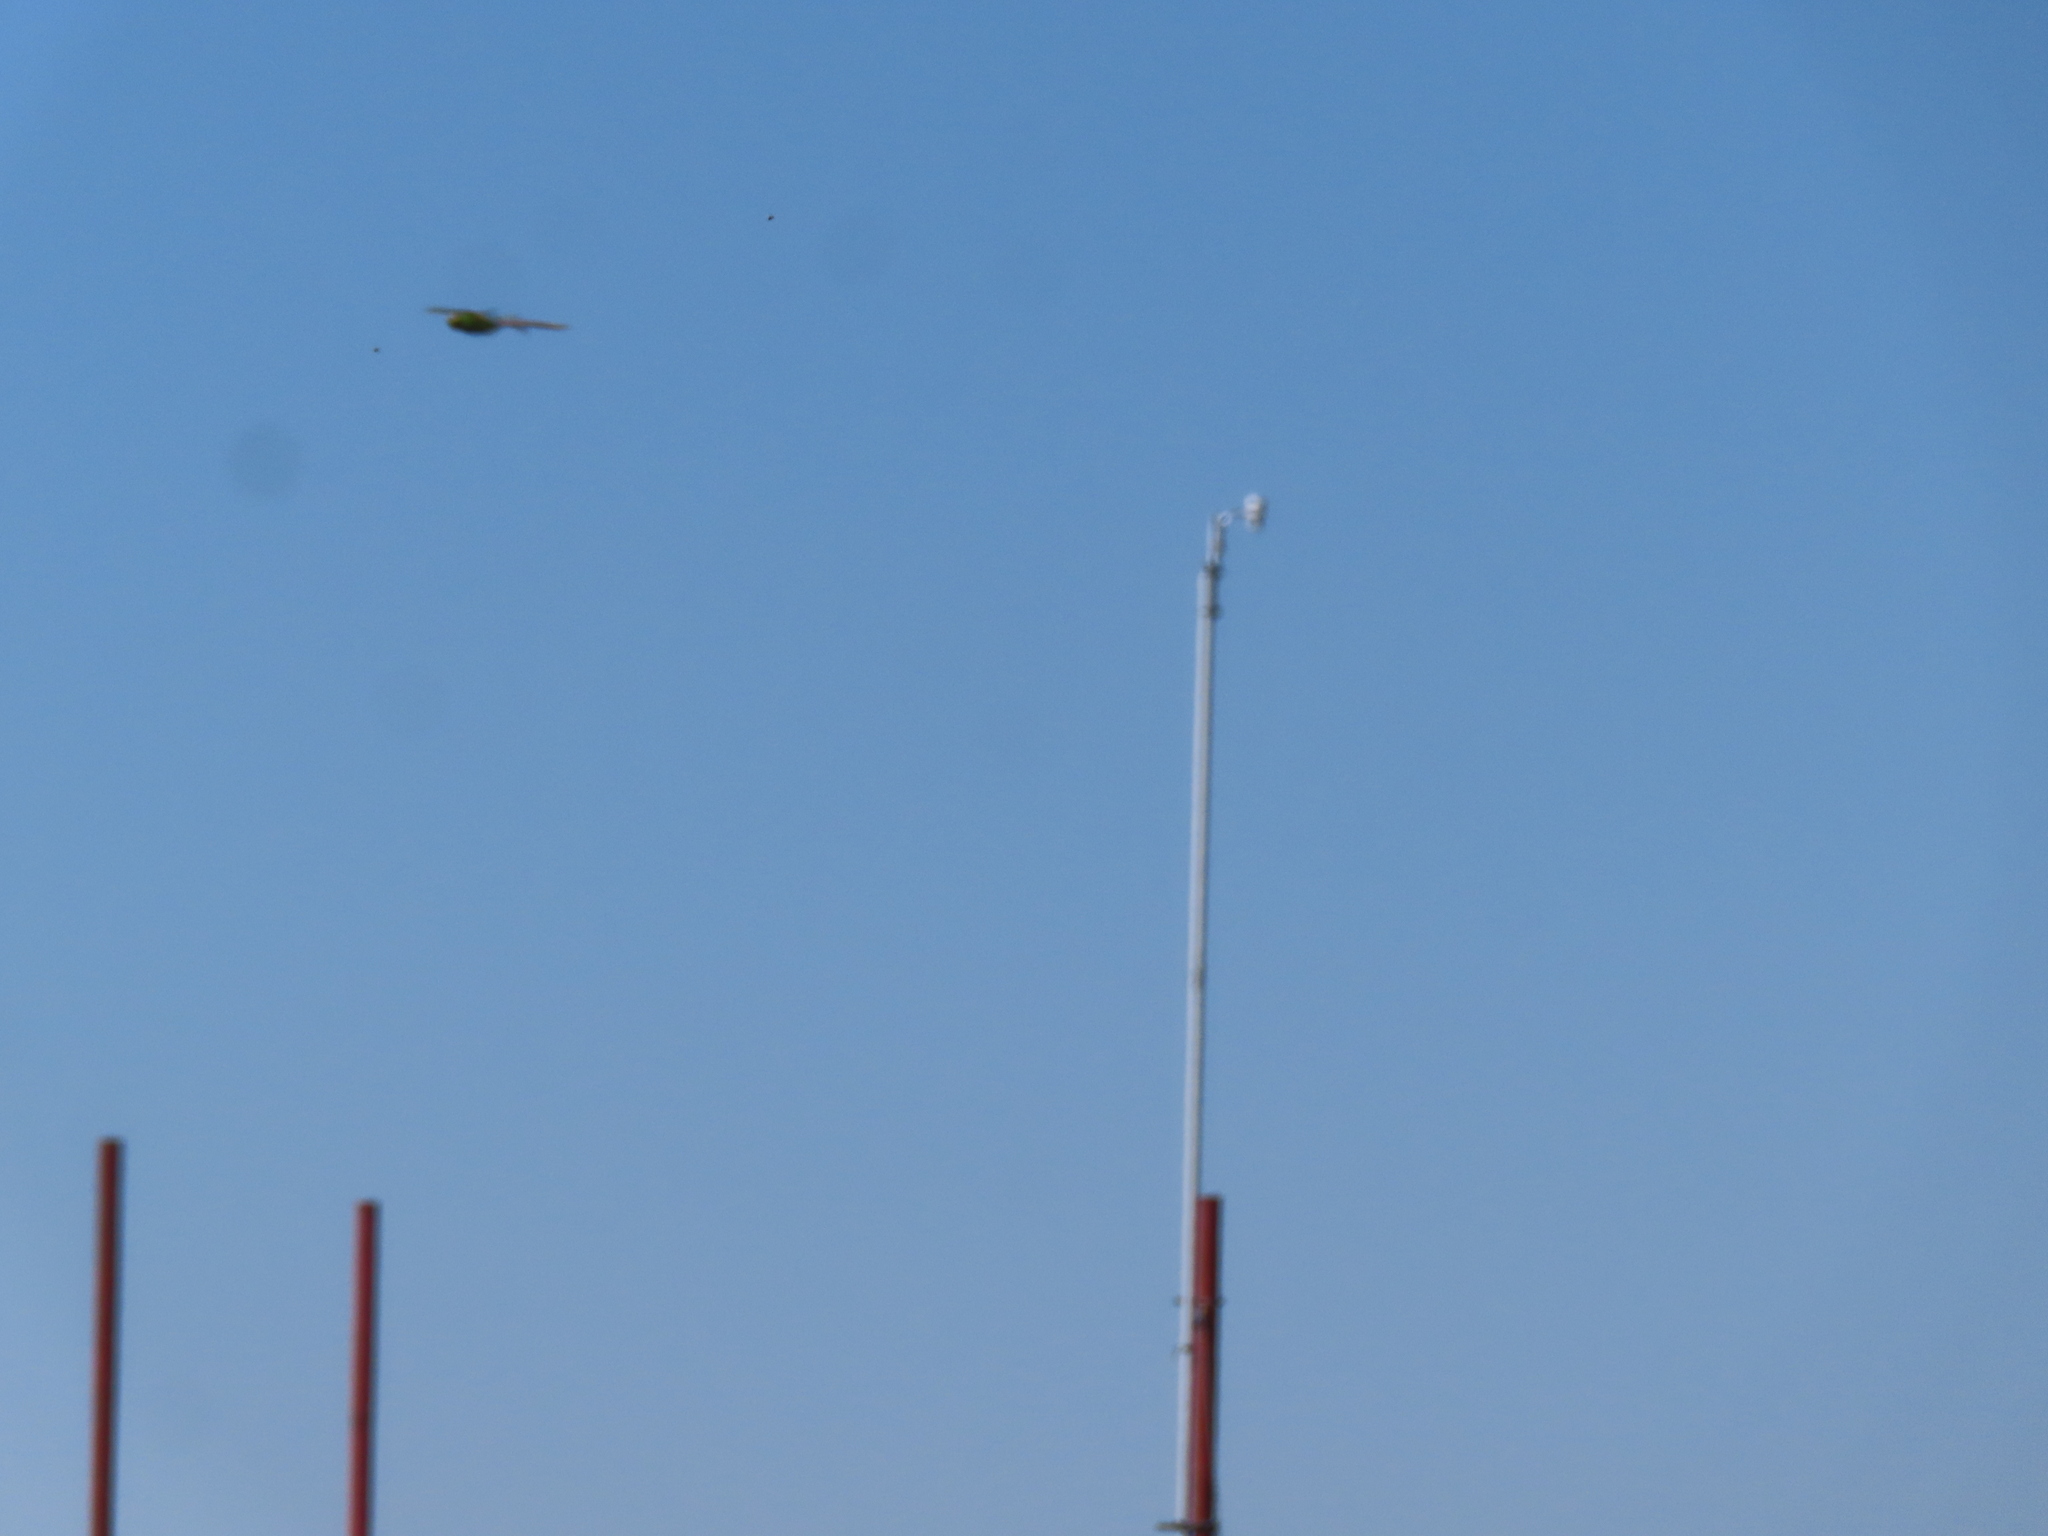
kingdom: Animalia
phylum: Arthropoda
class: Insecta
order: Odonata
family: Aeshnidae
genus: Anax
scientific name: Anax junius
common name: Common green darner
